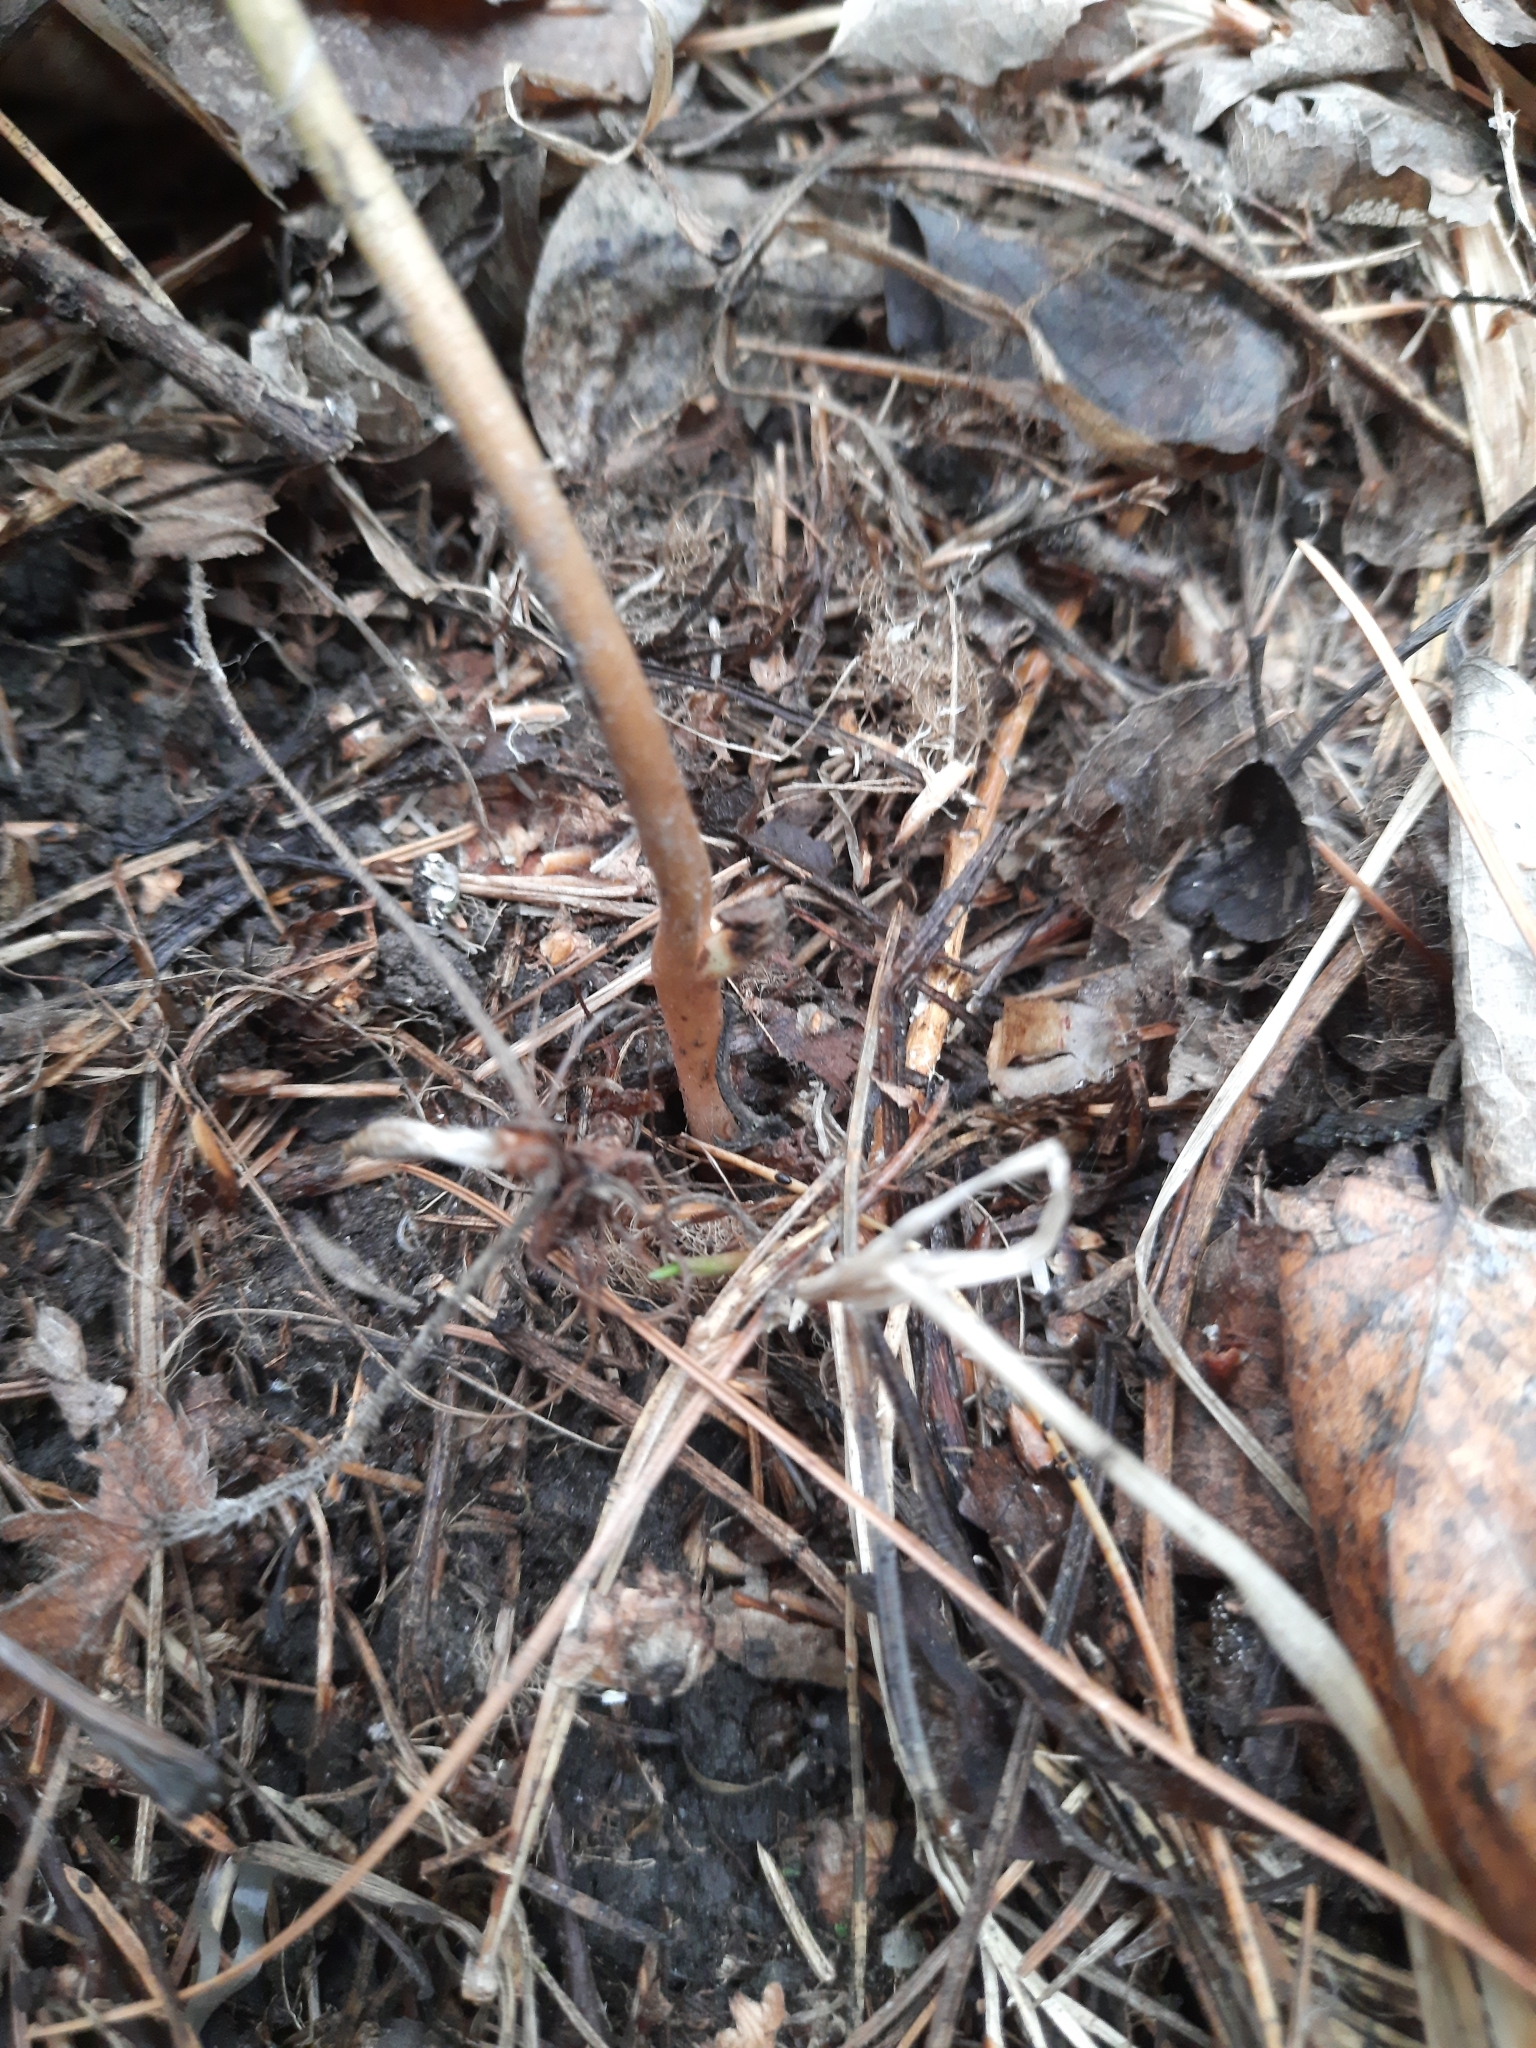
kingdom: Plantae
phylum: Tracheophyta
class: Magnoliopsida
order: Ranunculales
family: Ranunculaceae
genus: Clematis
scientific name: Clematis sibirica
